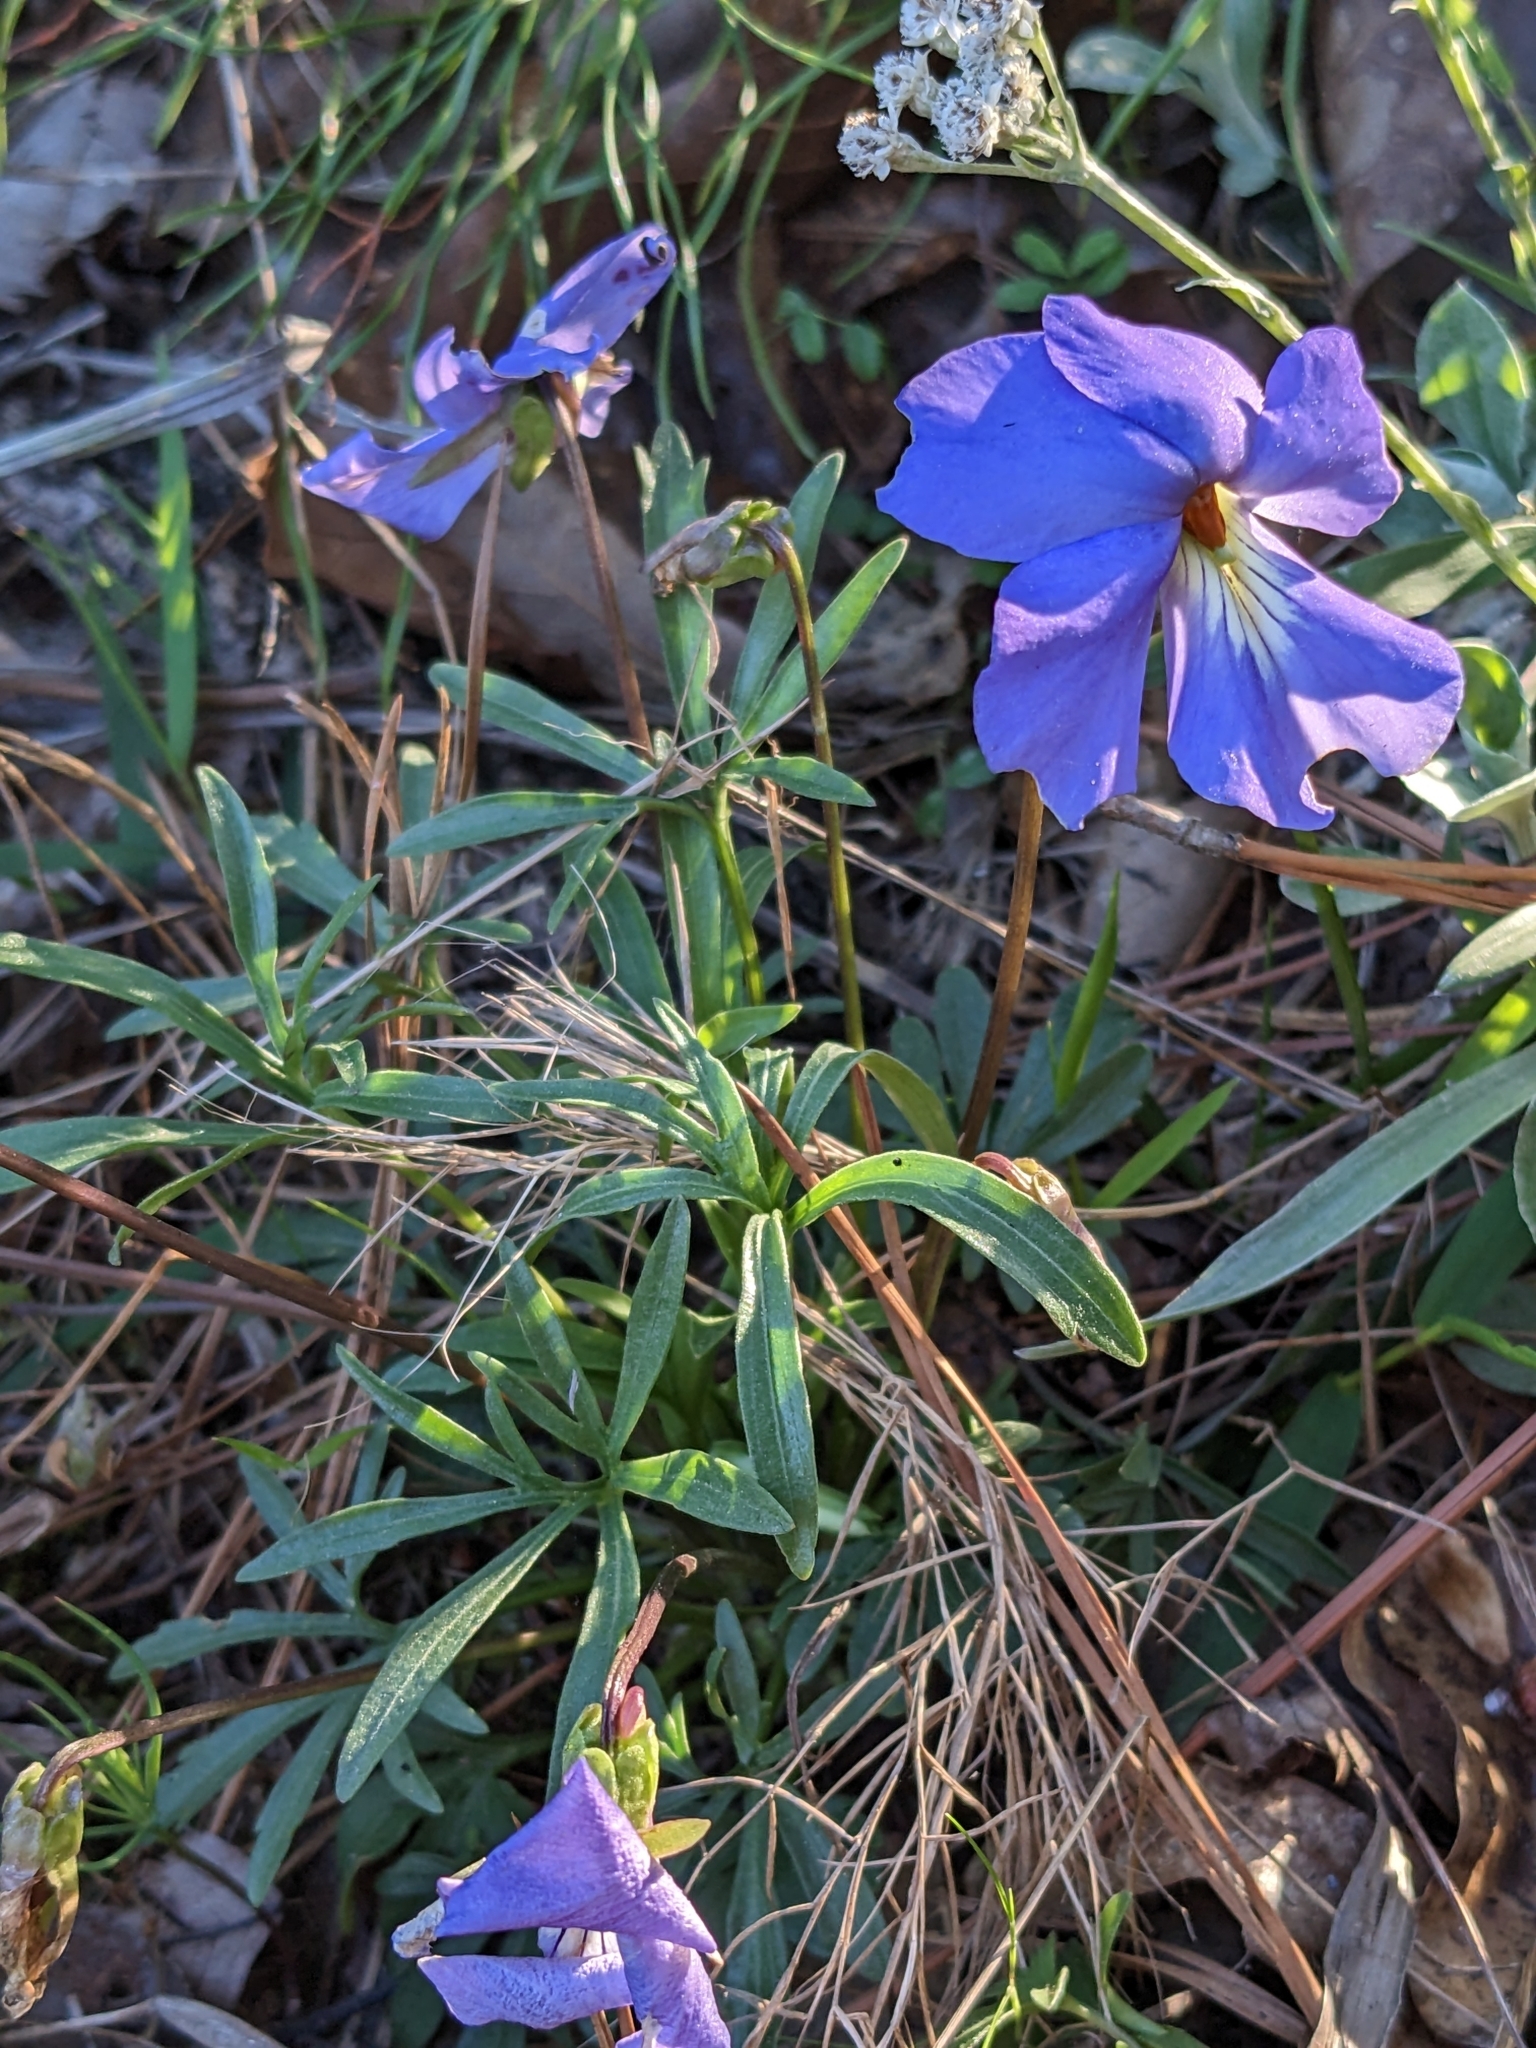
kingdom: Plantae
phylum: Tracheophyta
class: Magnoliopsida
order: Malpighiales
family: Violaceae
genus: Viola
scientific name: Viola pedata
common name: Pansy violet
